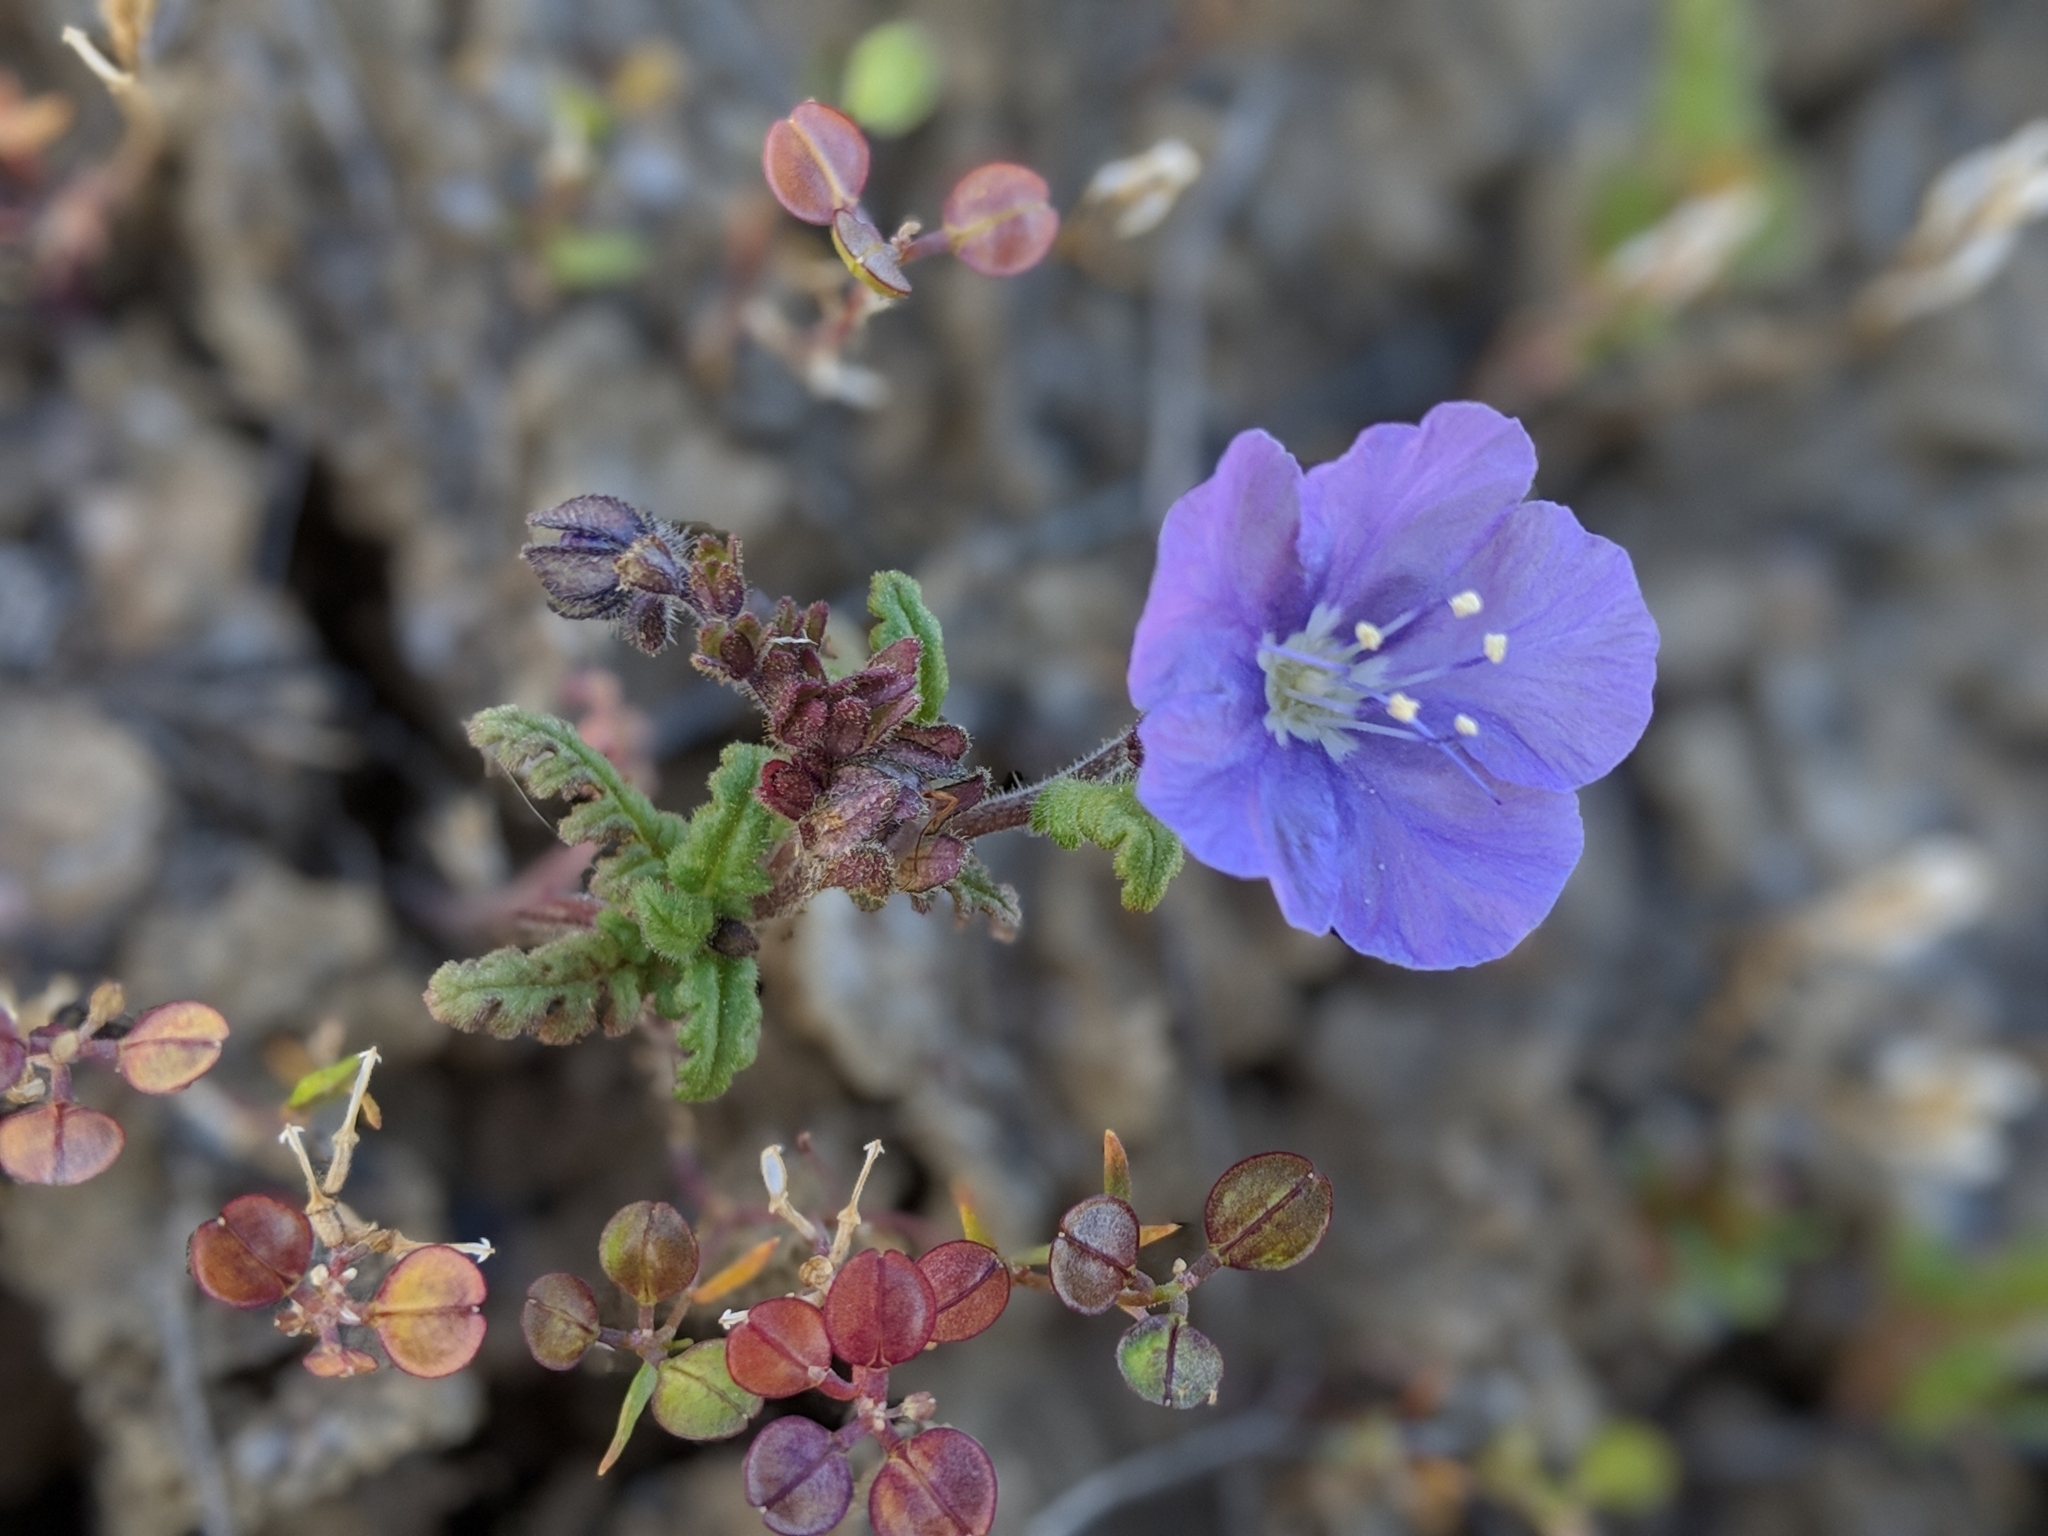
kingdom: Plantae
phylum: Tracheophyta
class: Magnoliopsida
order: Boraginales
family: Hydrophyllaceae
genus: Phacelia
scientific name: Phacelia ciliata
